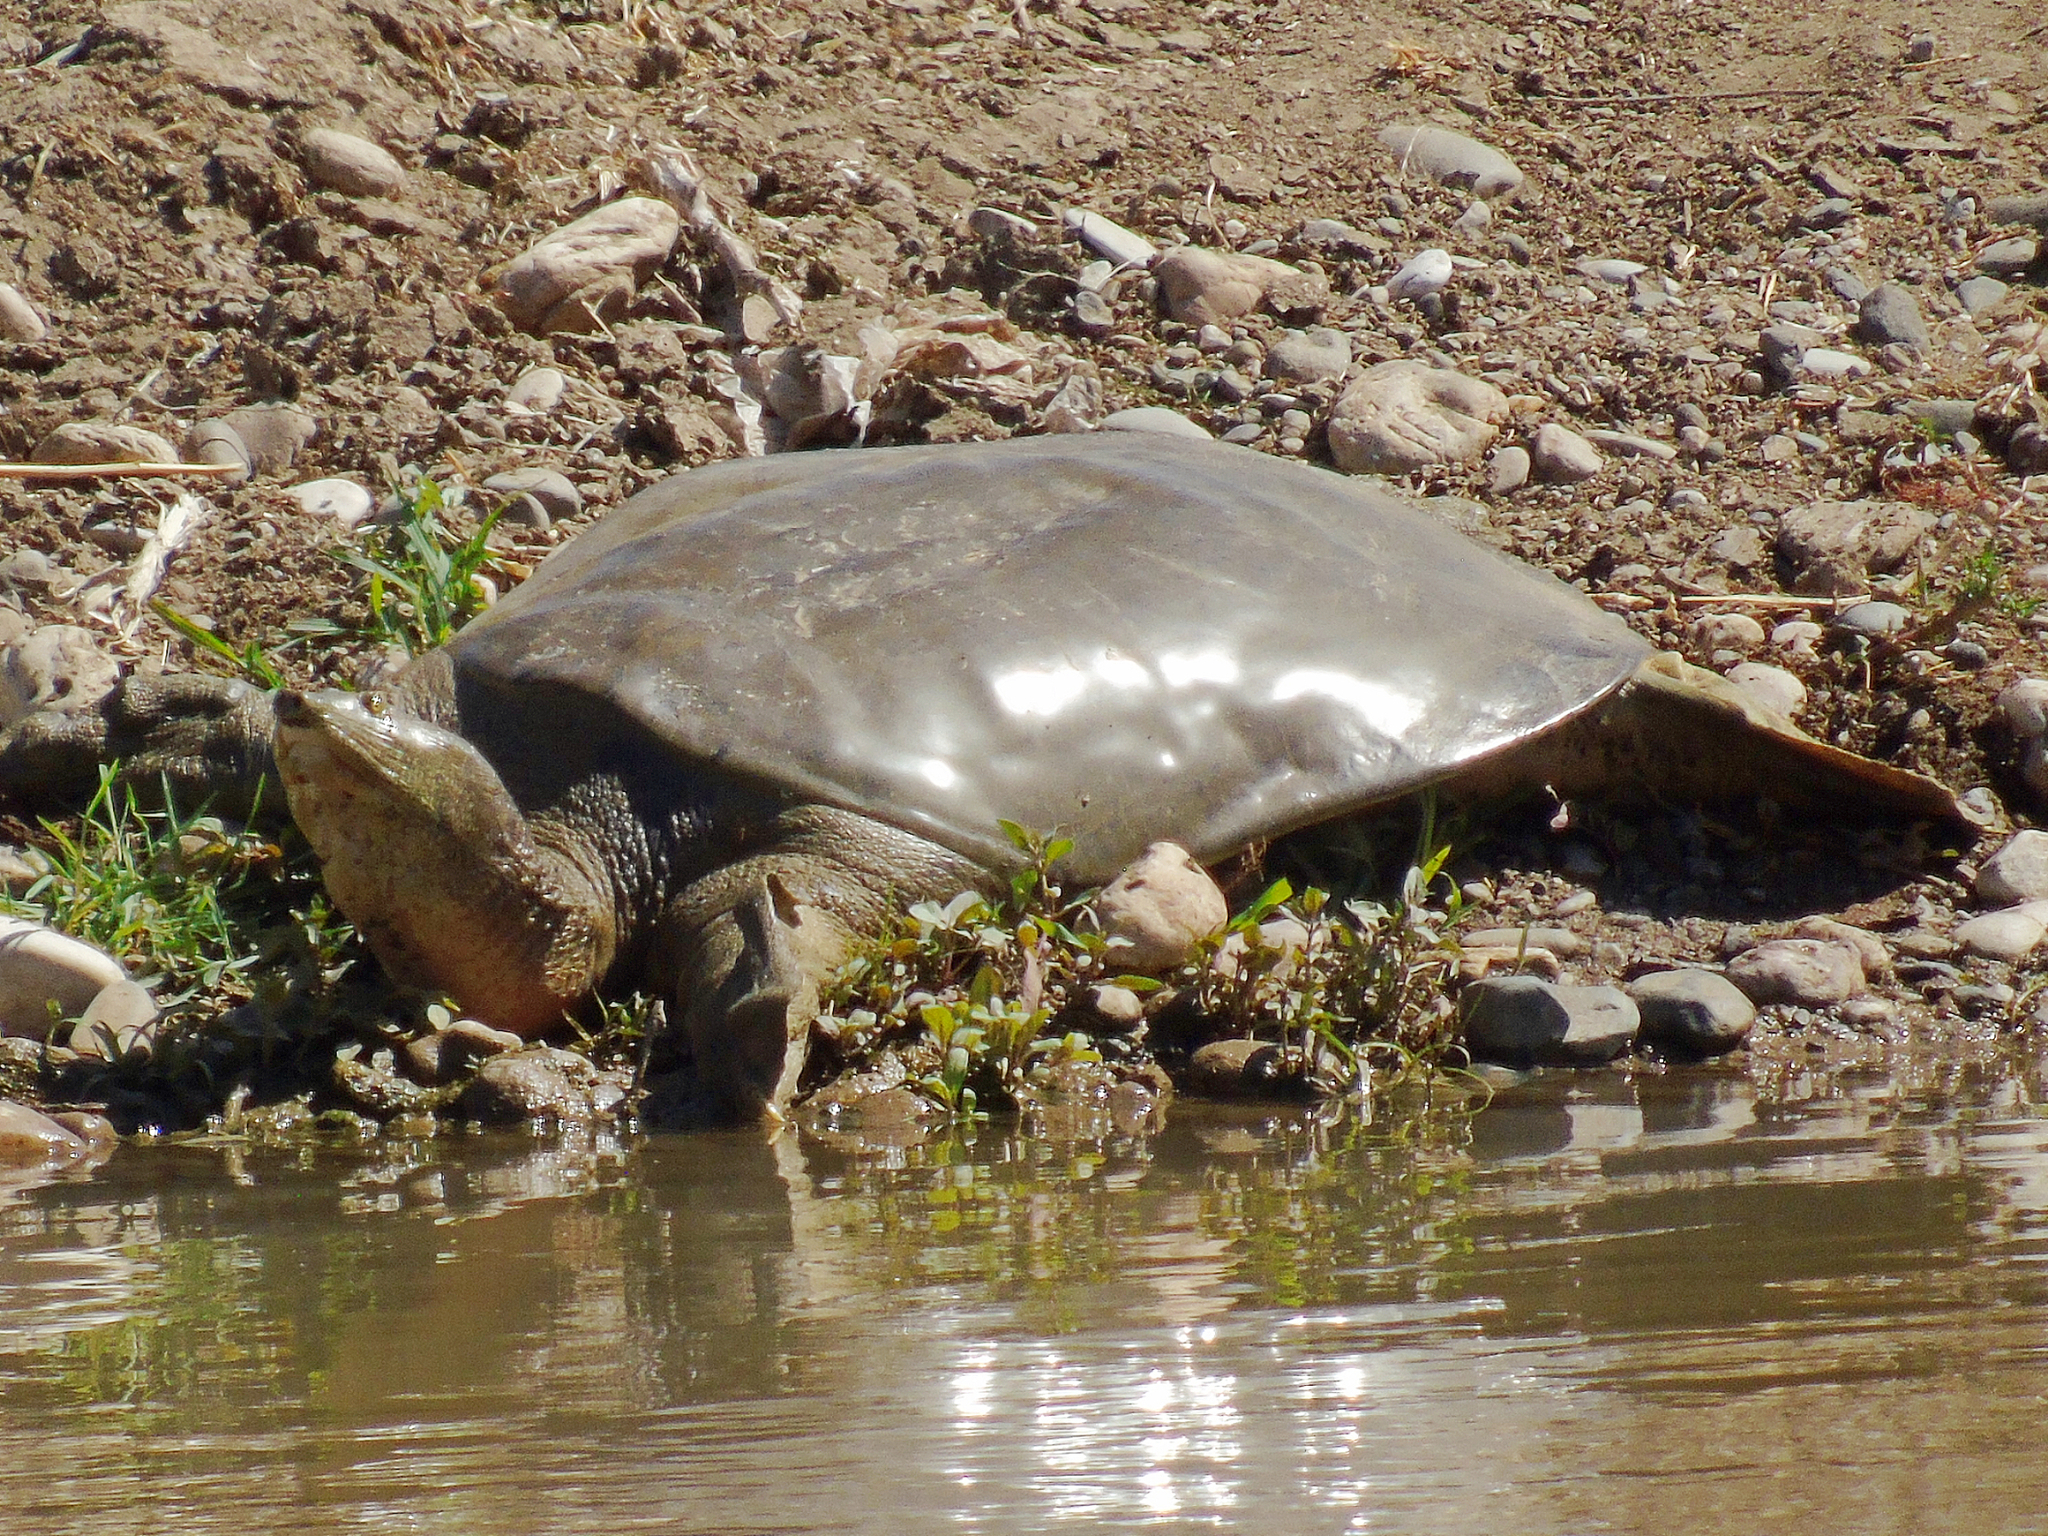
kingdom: Animalia
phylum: Chordata
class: Testudines
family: Trionychidae
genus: Rafetus
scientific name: Rafetus euphraticus
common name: Euphrates softshell
